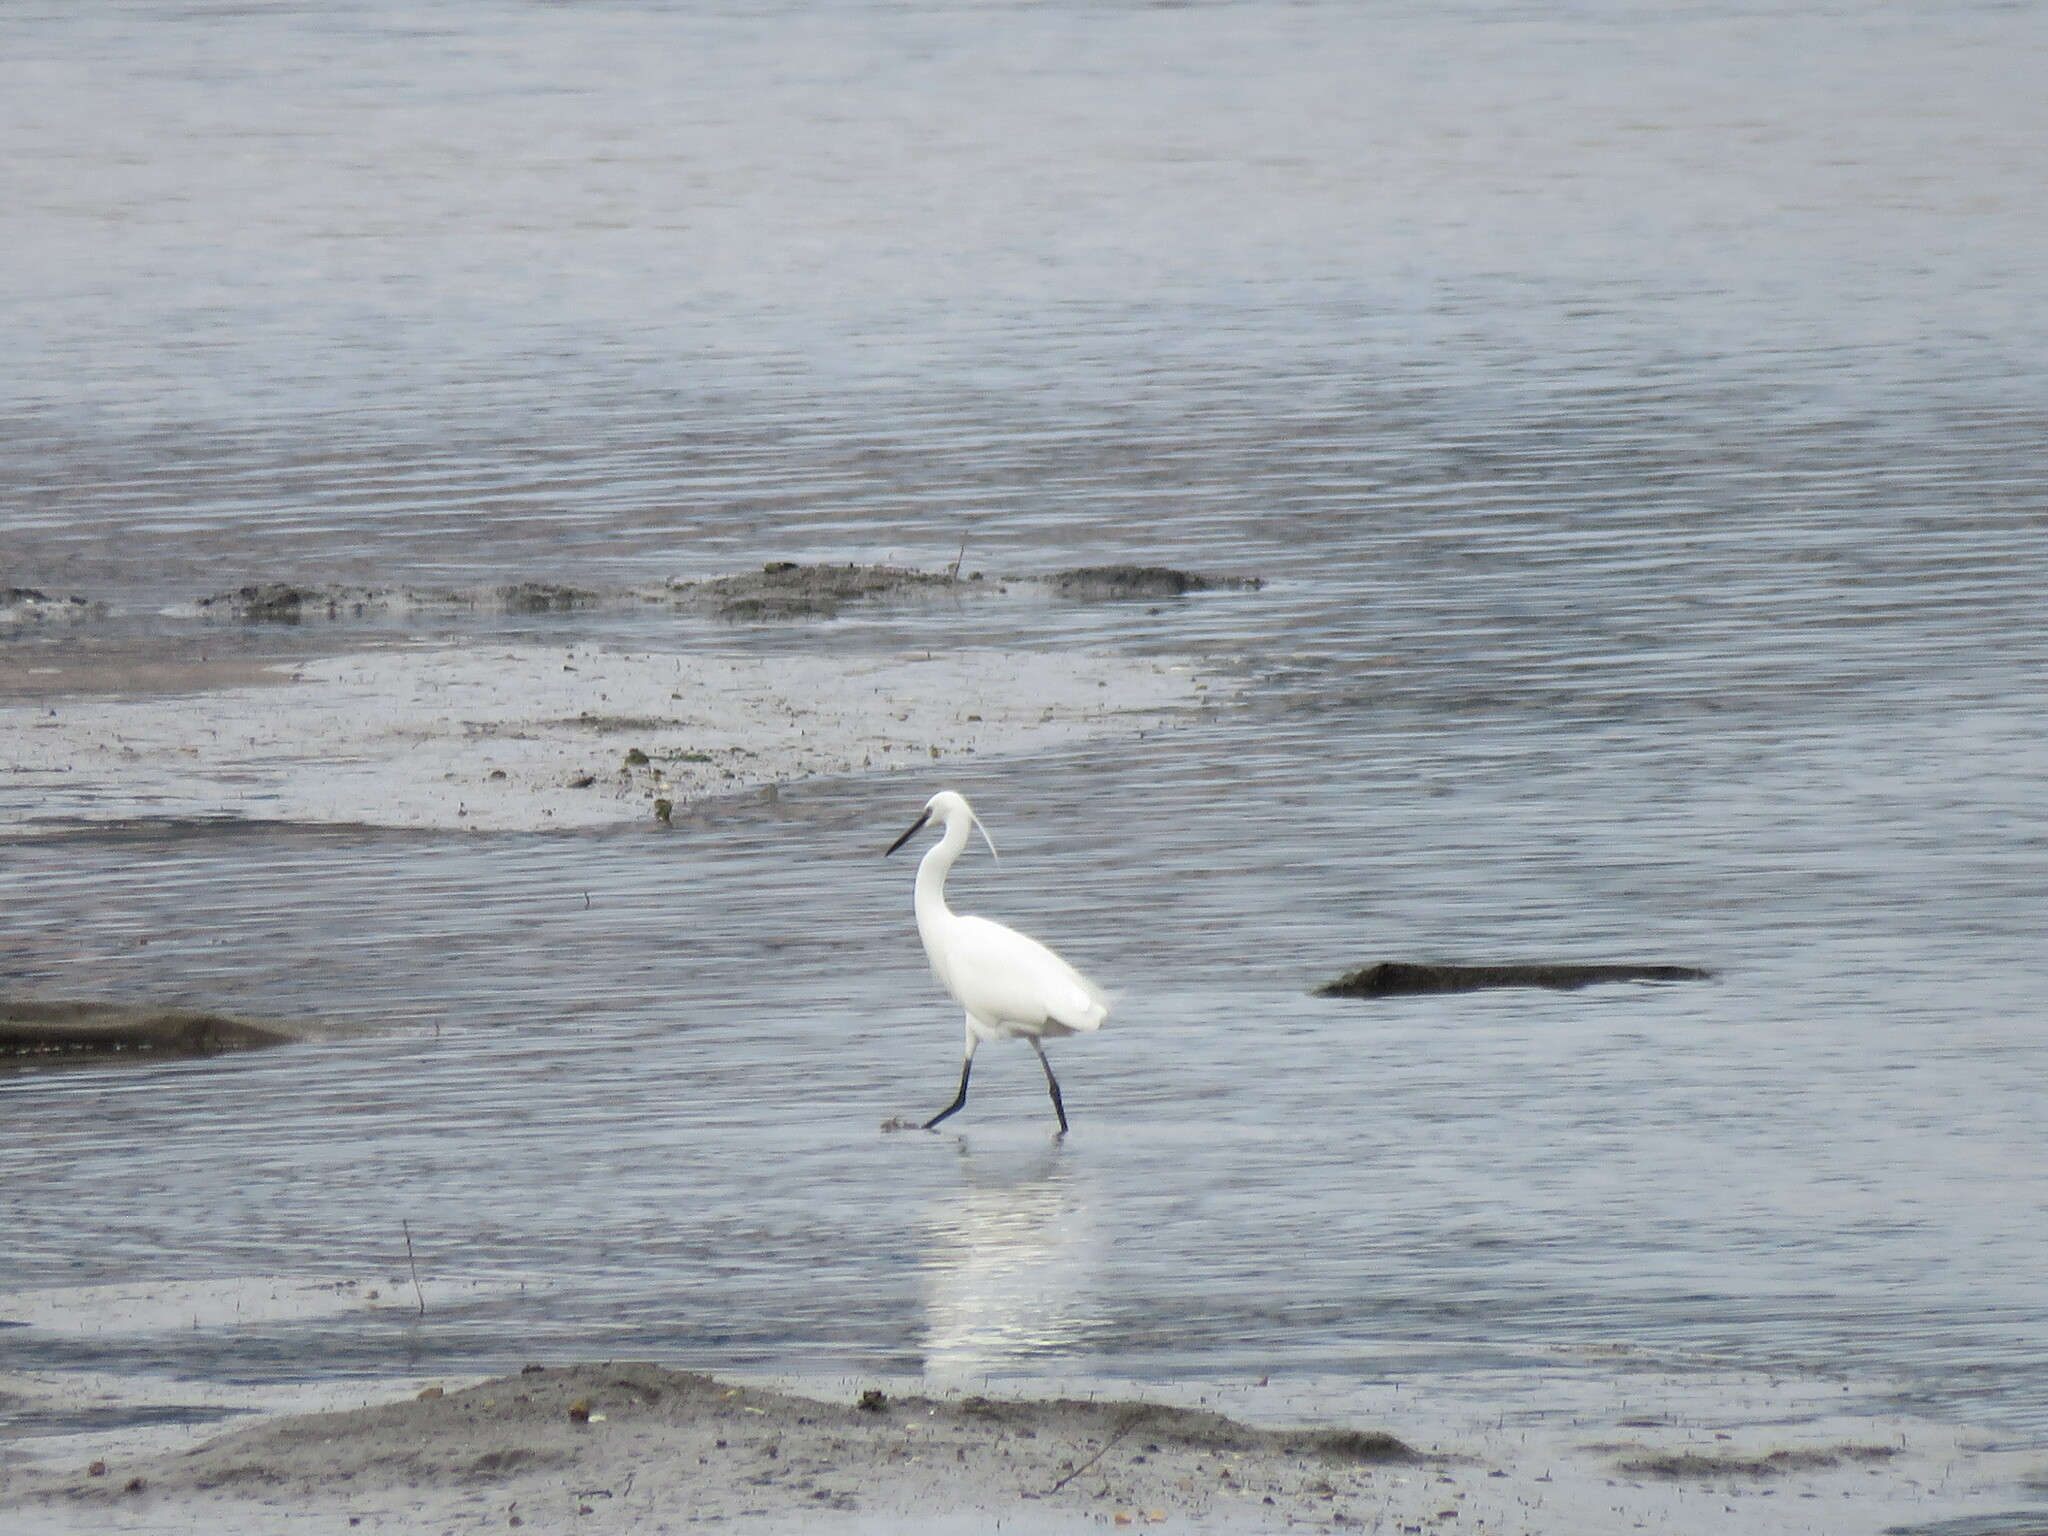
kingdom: Animalia
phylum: Chordata
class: Aves
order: Pelecaniformes
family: Ardeidae
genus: Egretta
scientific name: Egretta garzetta
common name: Little egret
